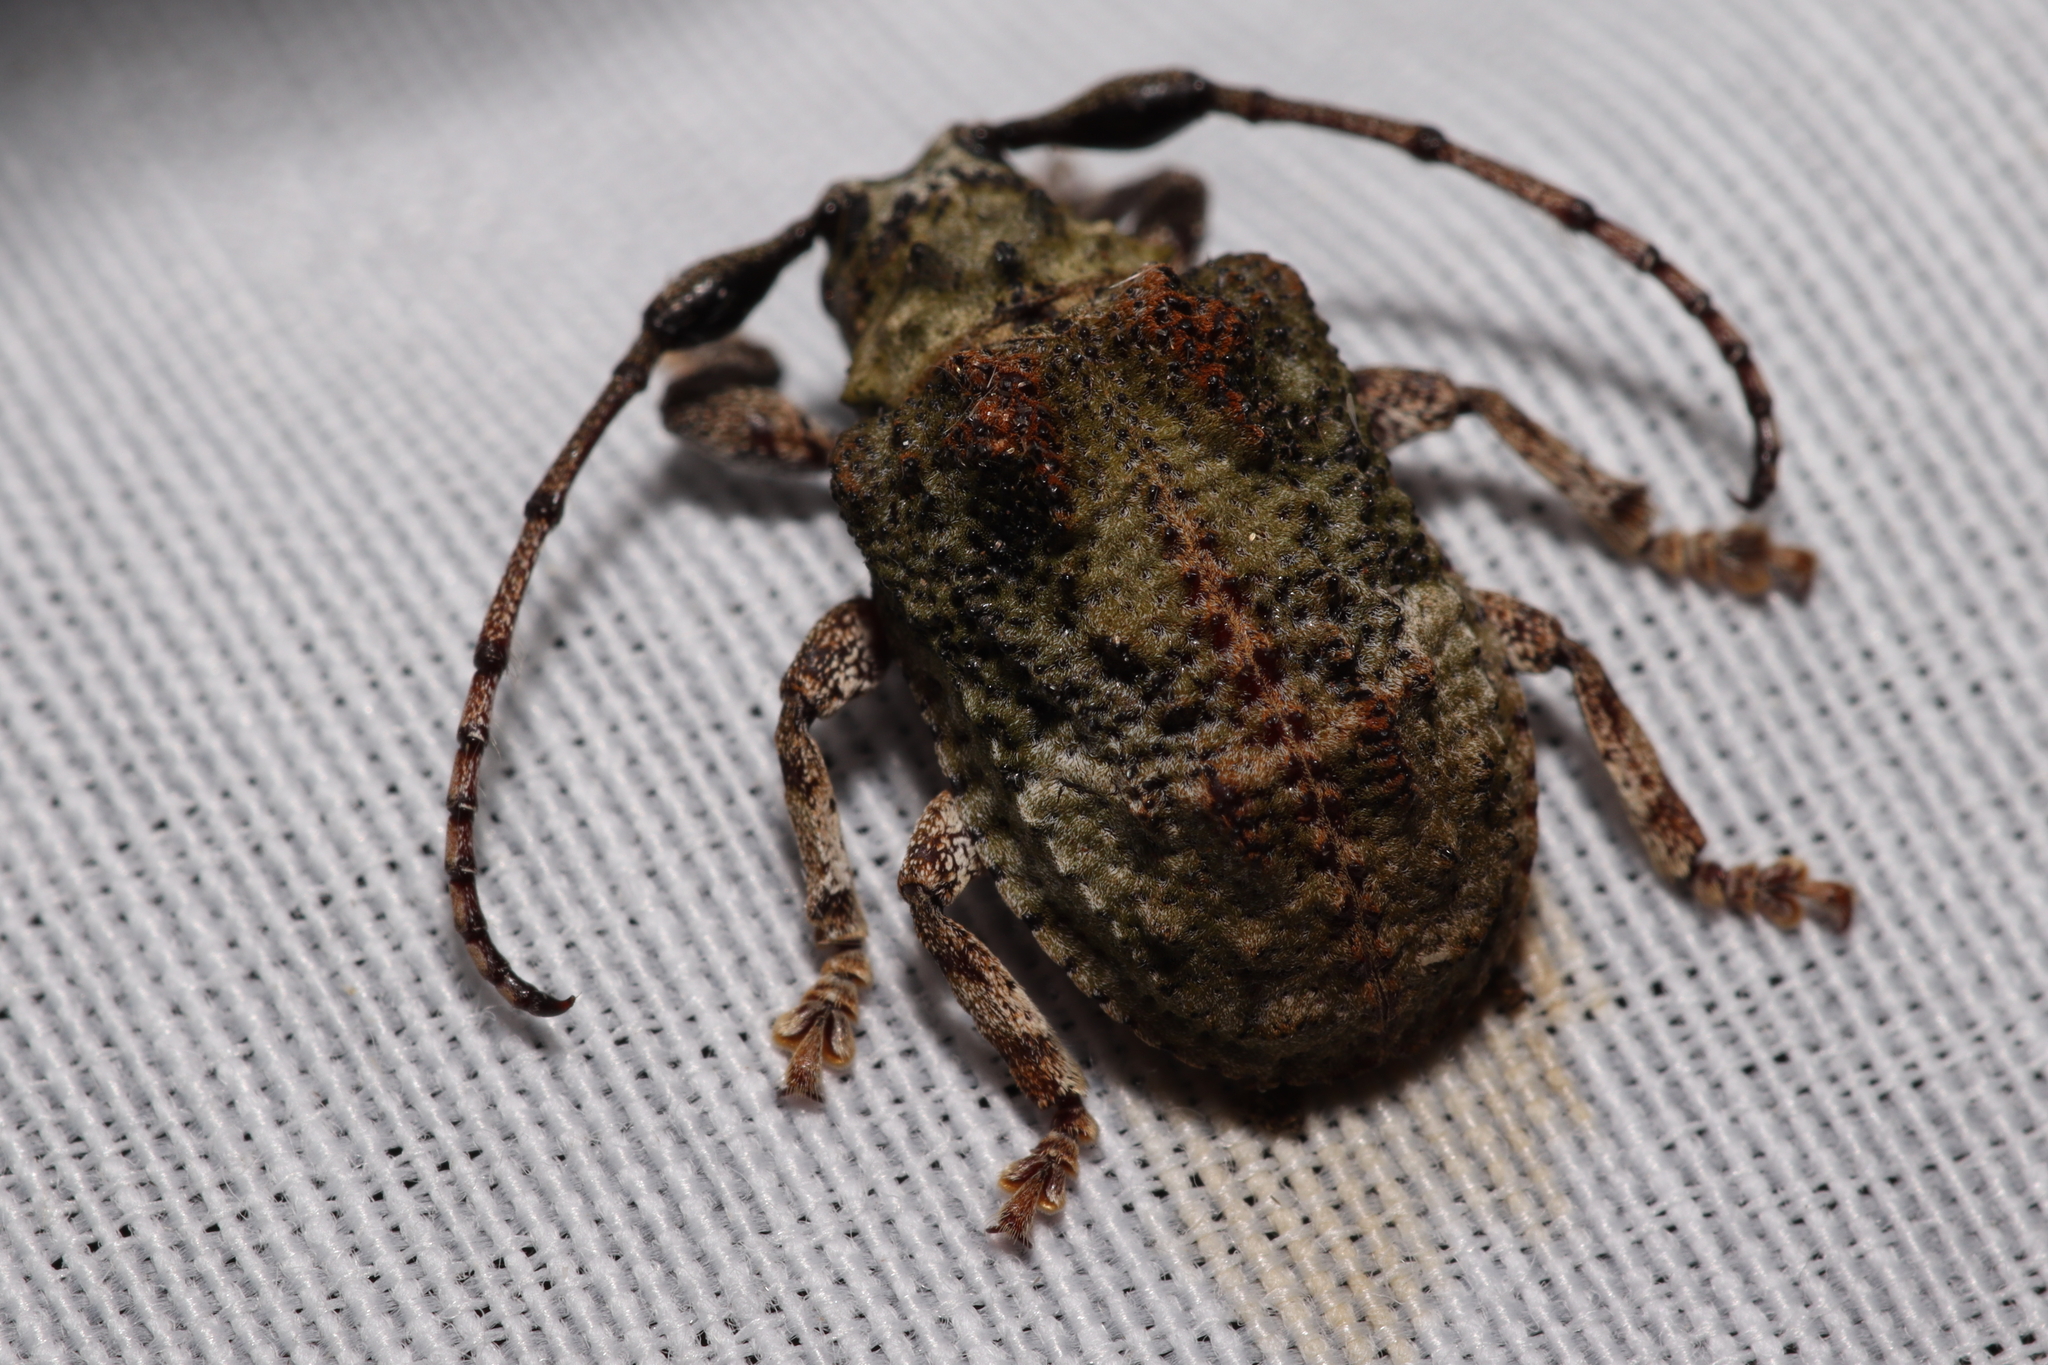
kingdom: Animalia
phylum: Arthropoda
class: Insecta
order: Coleoptera
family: Cerambycidae
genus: Onychocerus
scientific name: Onychocerus aculeicornis
